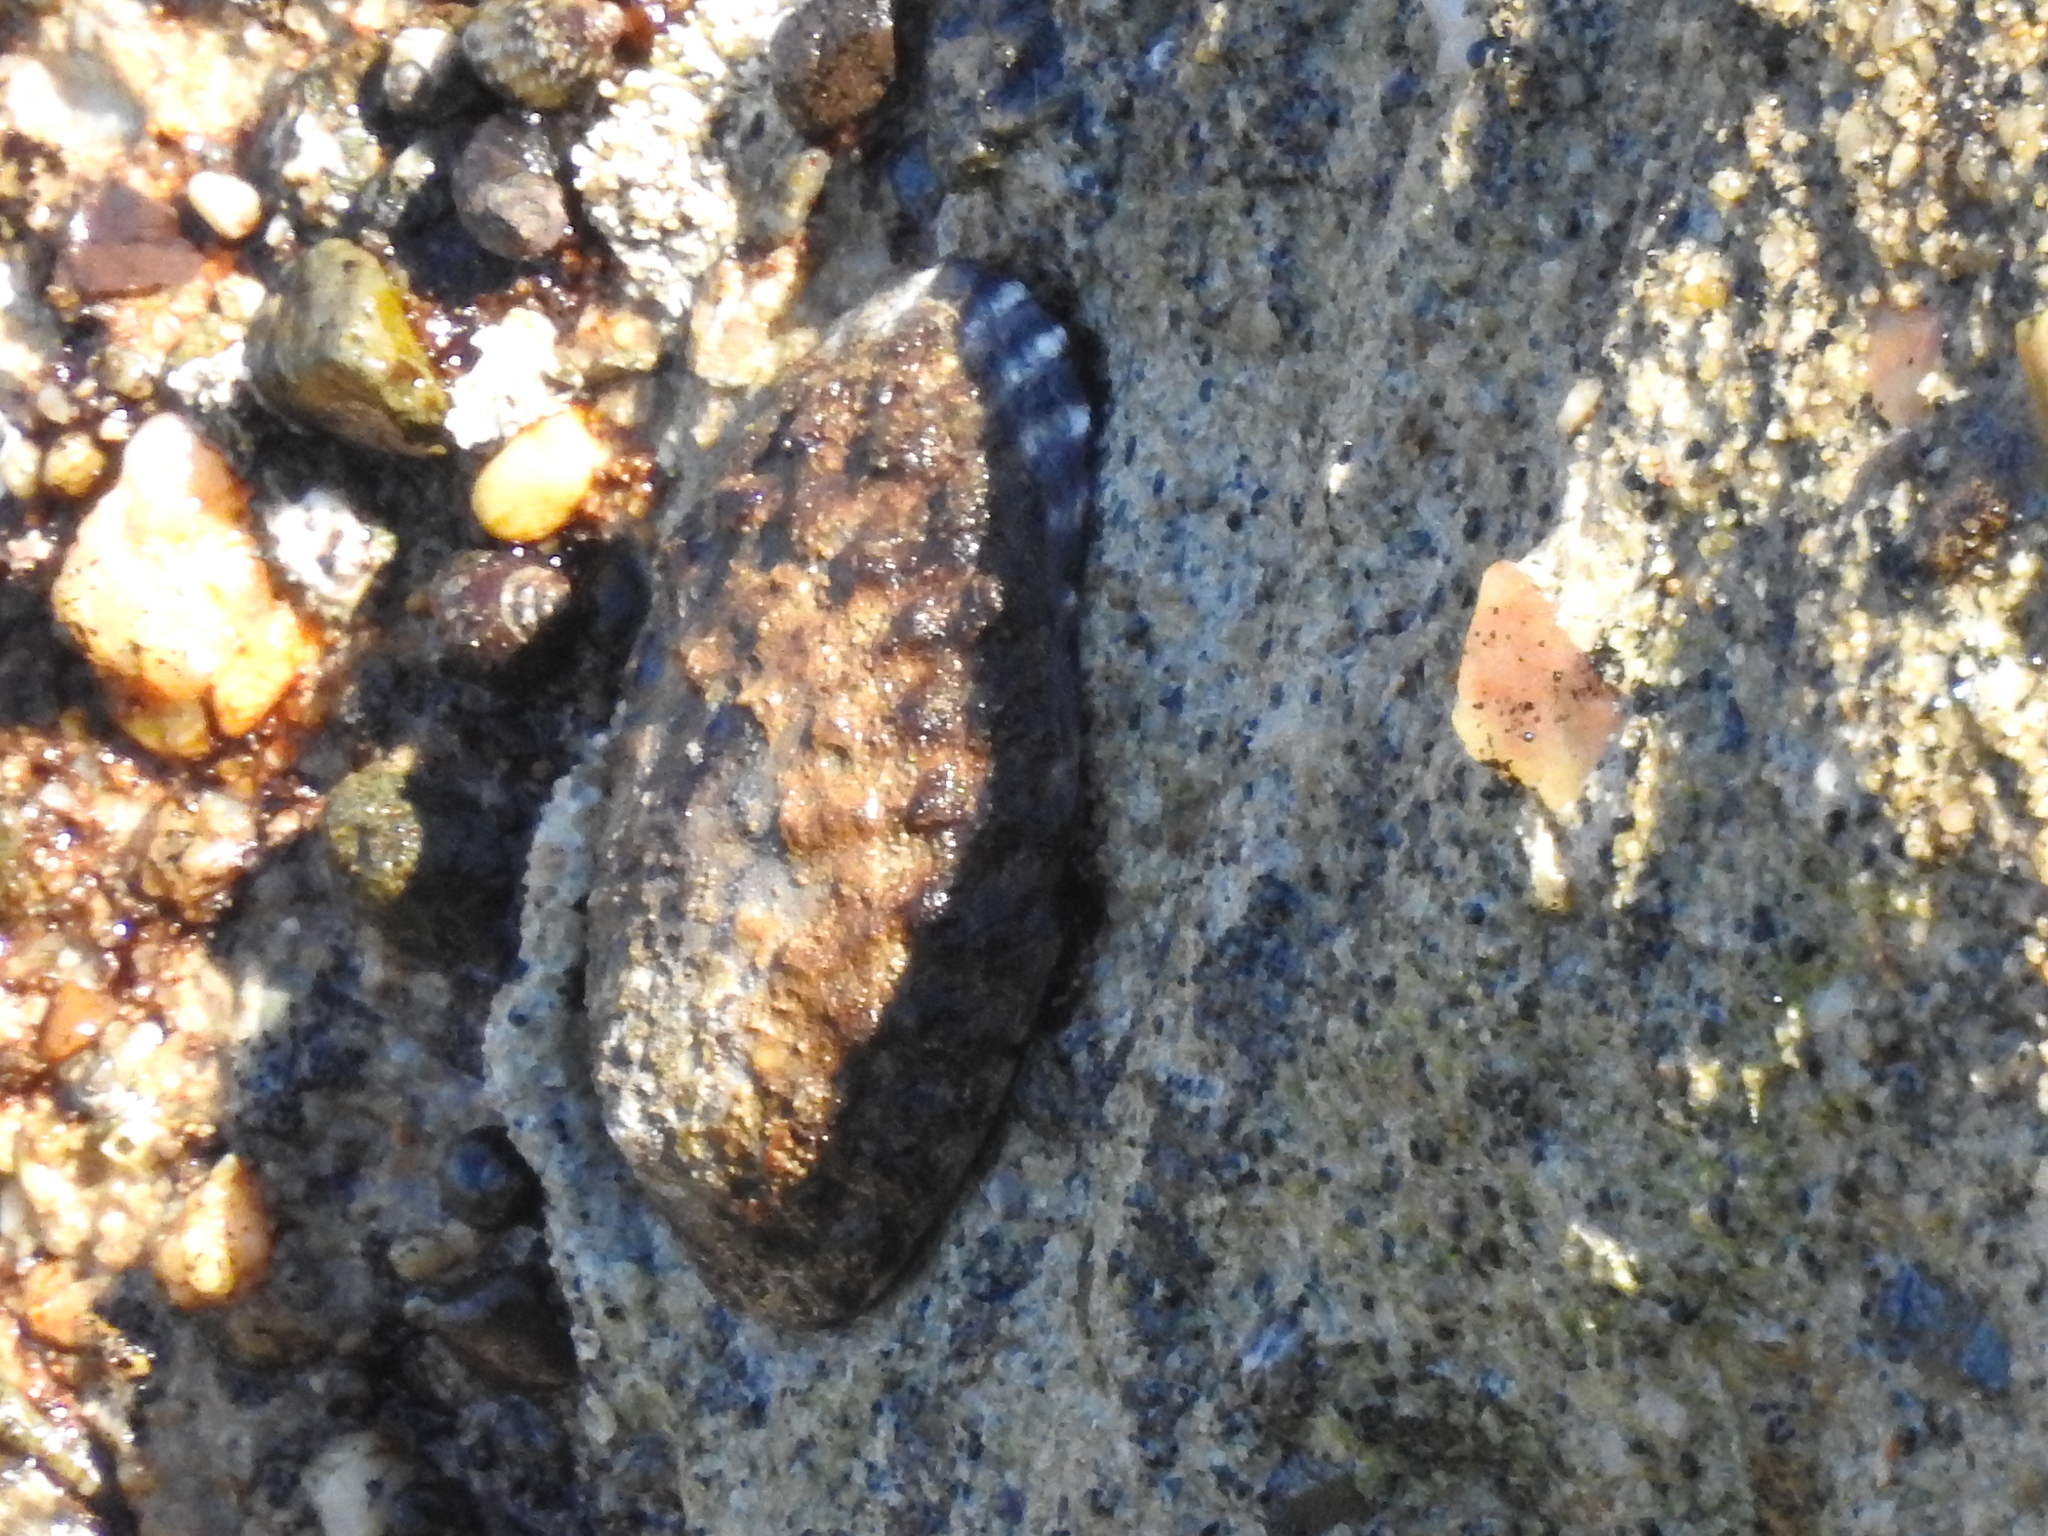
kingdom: Animalia
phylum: Mollusca
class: Gastropoda
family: Lottiidae
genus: Lottia
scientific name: Lottia gigantea
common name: Owl limpet
